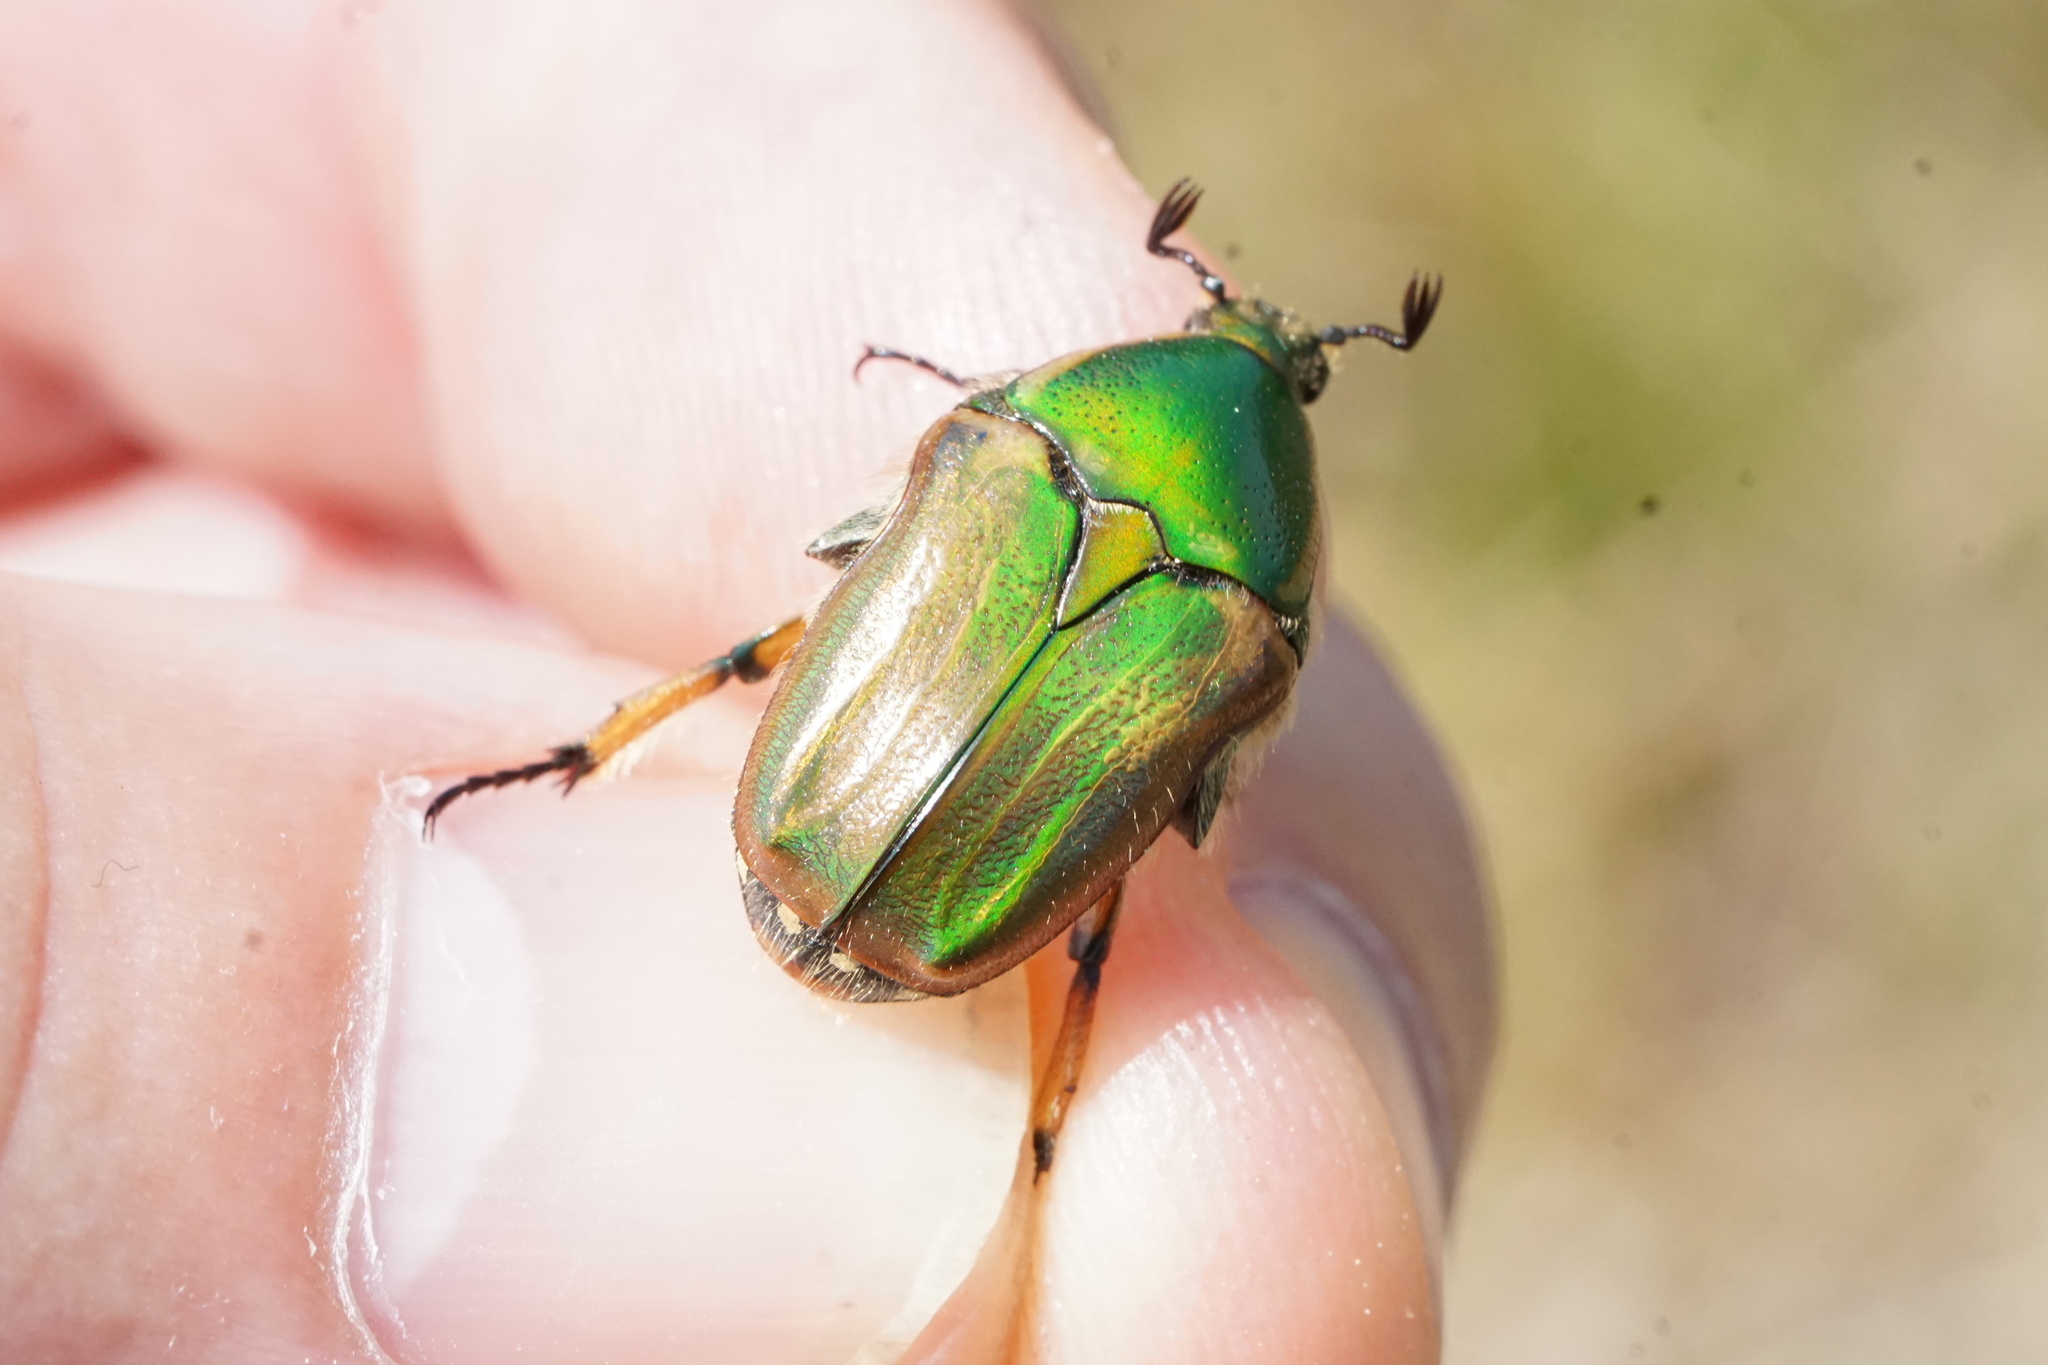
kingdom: Animalia
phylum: Arthropoda
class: Insecta
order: Coleoptera
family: Scarabaeidae
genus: Euphoria
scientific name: Euphoria fulgida
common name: Emerald euphoria
